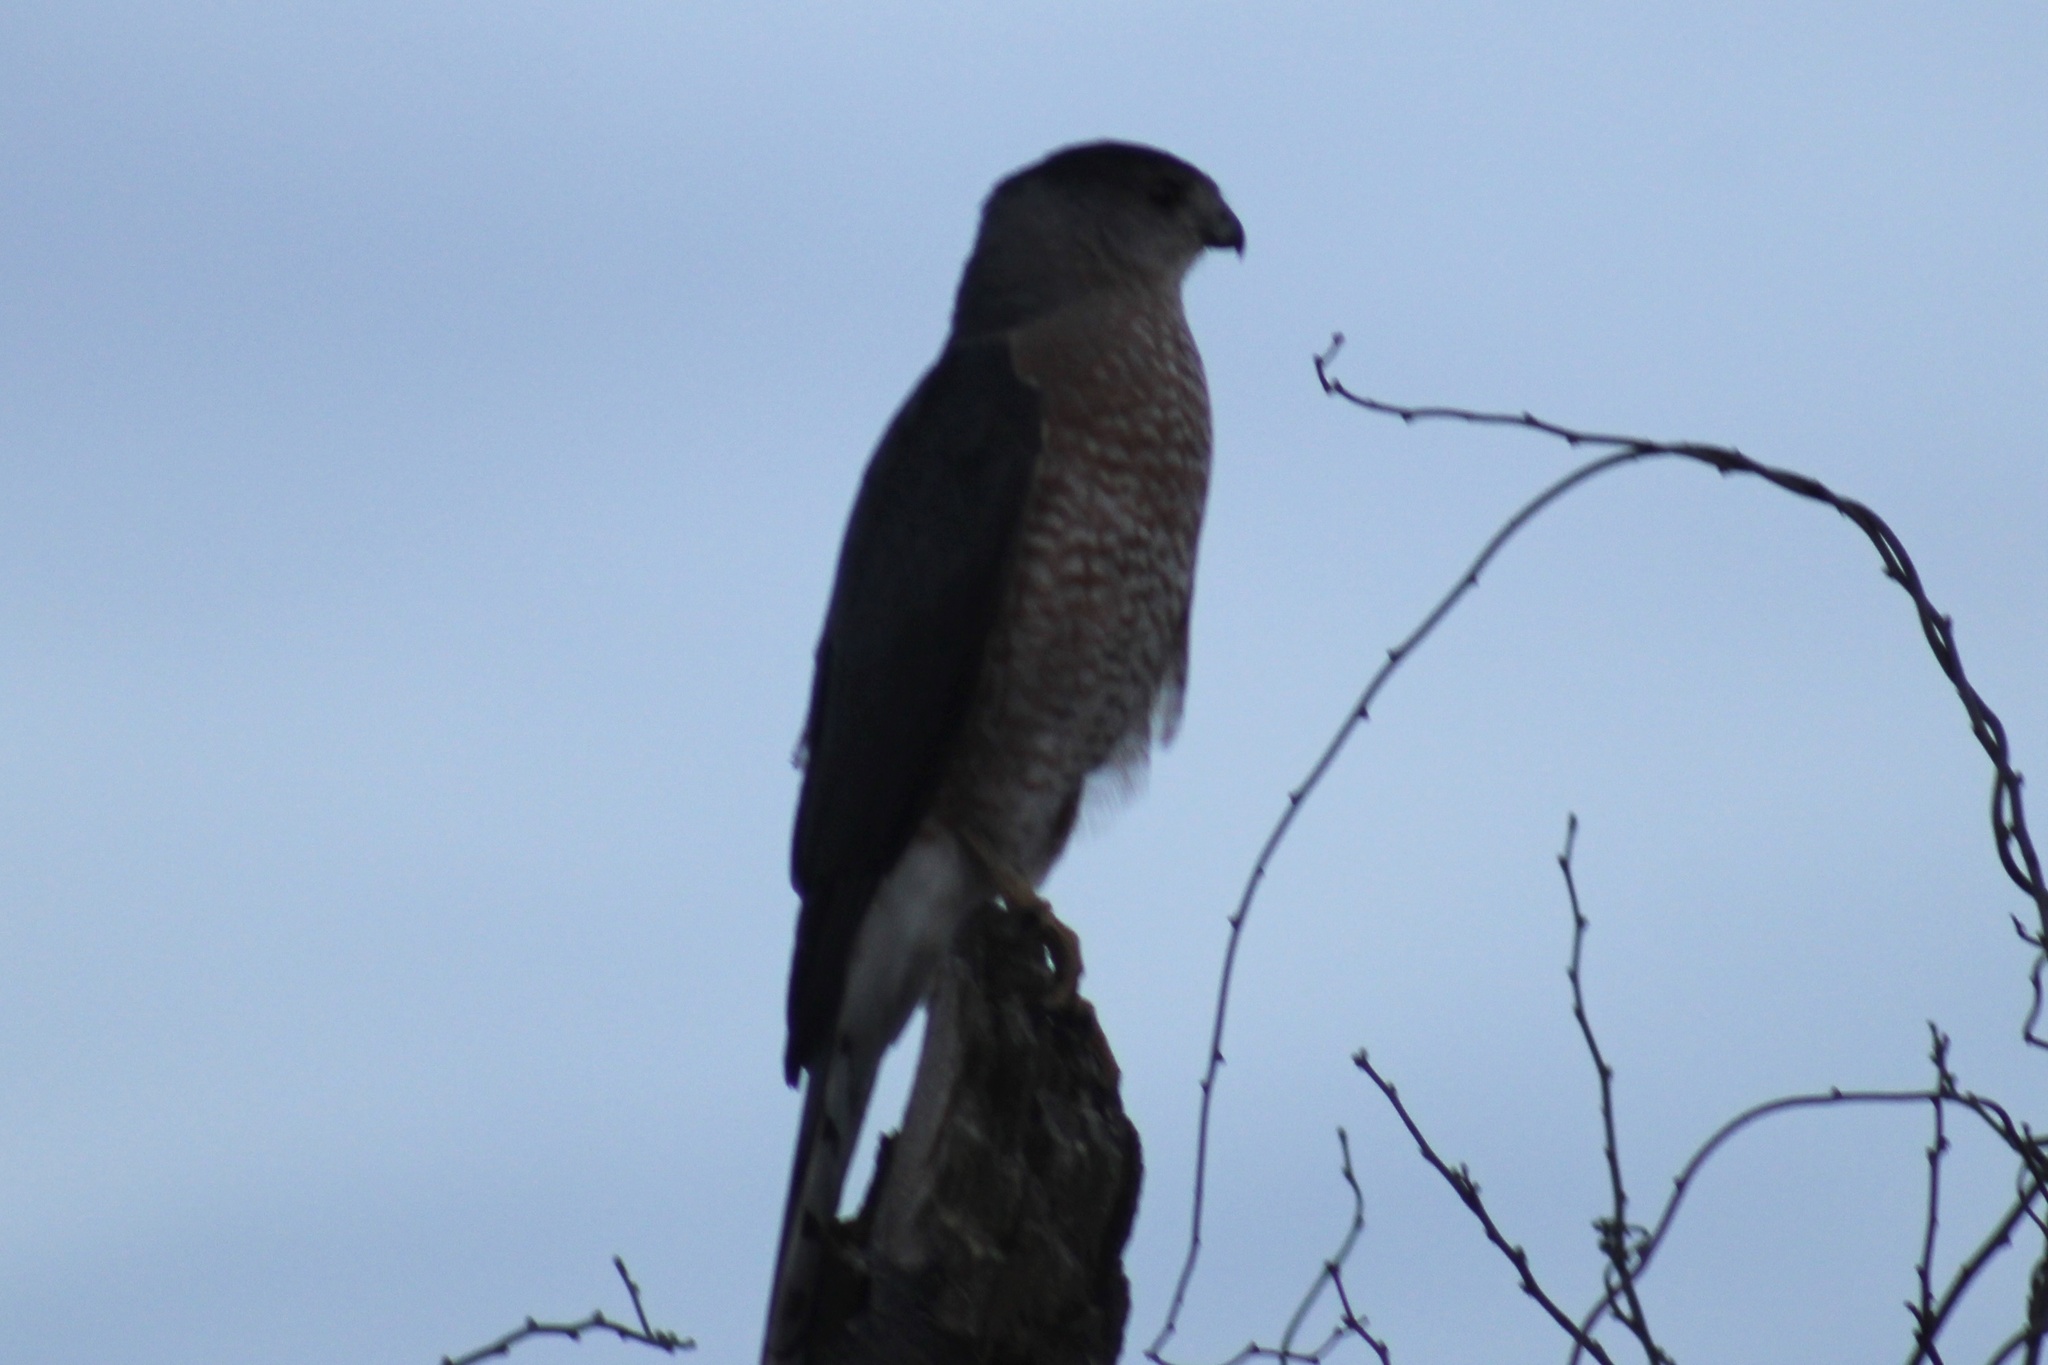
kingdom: Animalia
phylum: Chordata
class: Aves
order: Accipitriformes
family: Accipitridae
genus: Accipiter
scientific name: Accipiter cooperii
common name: Cooper's hawk
